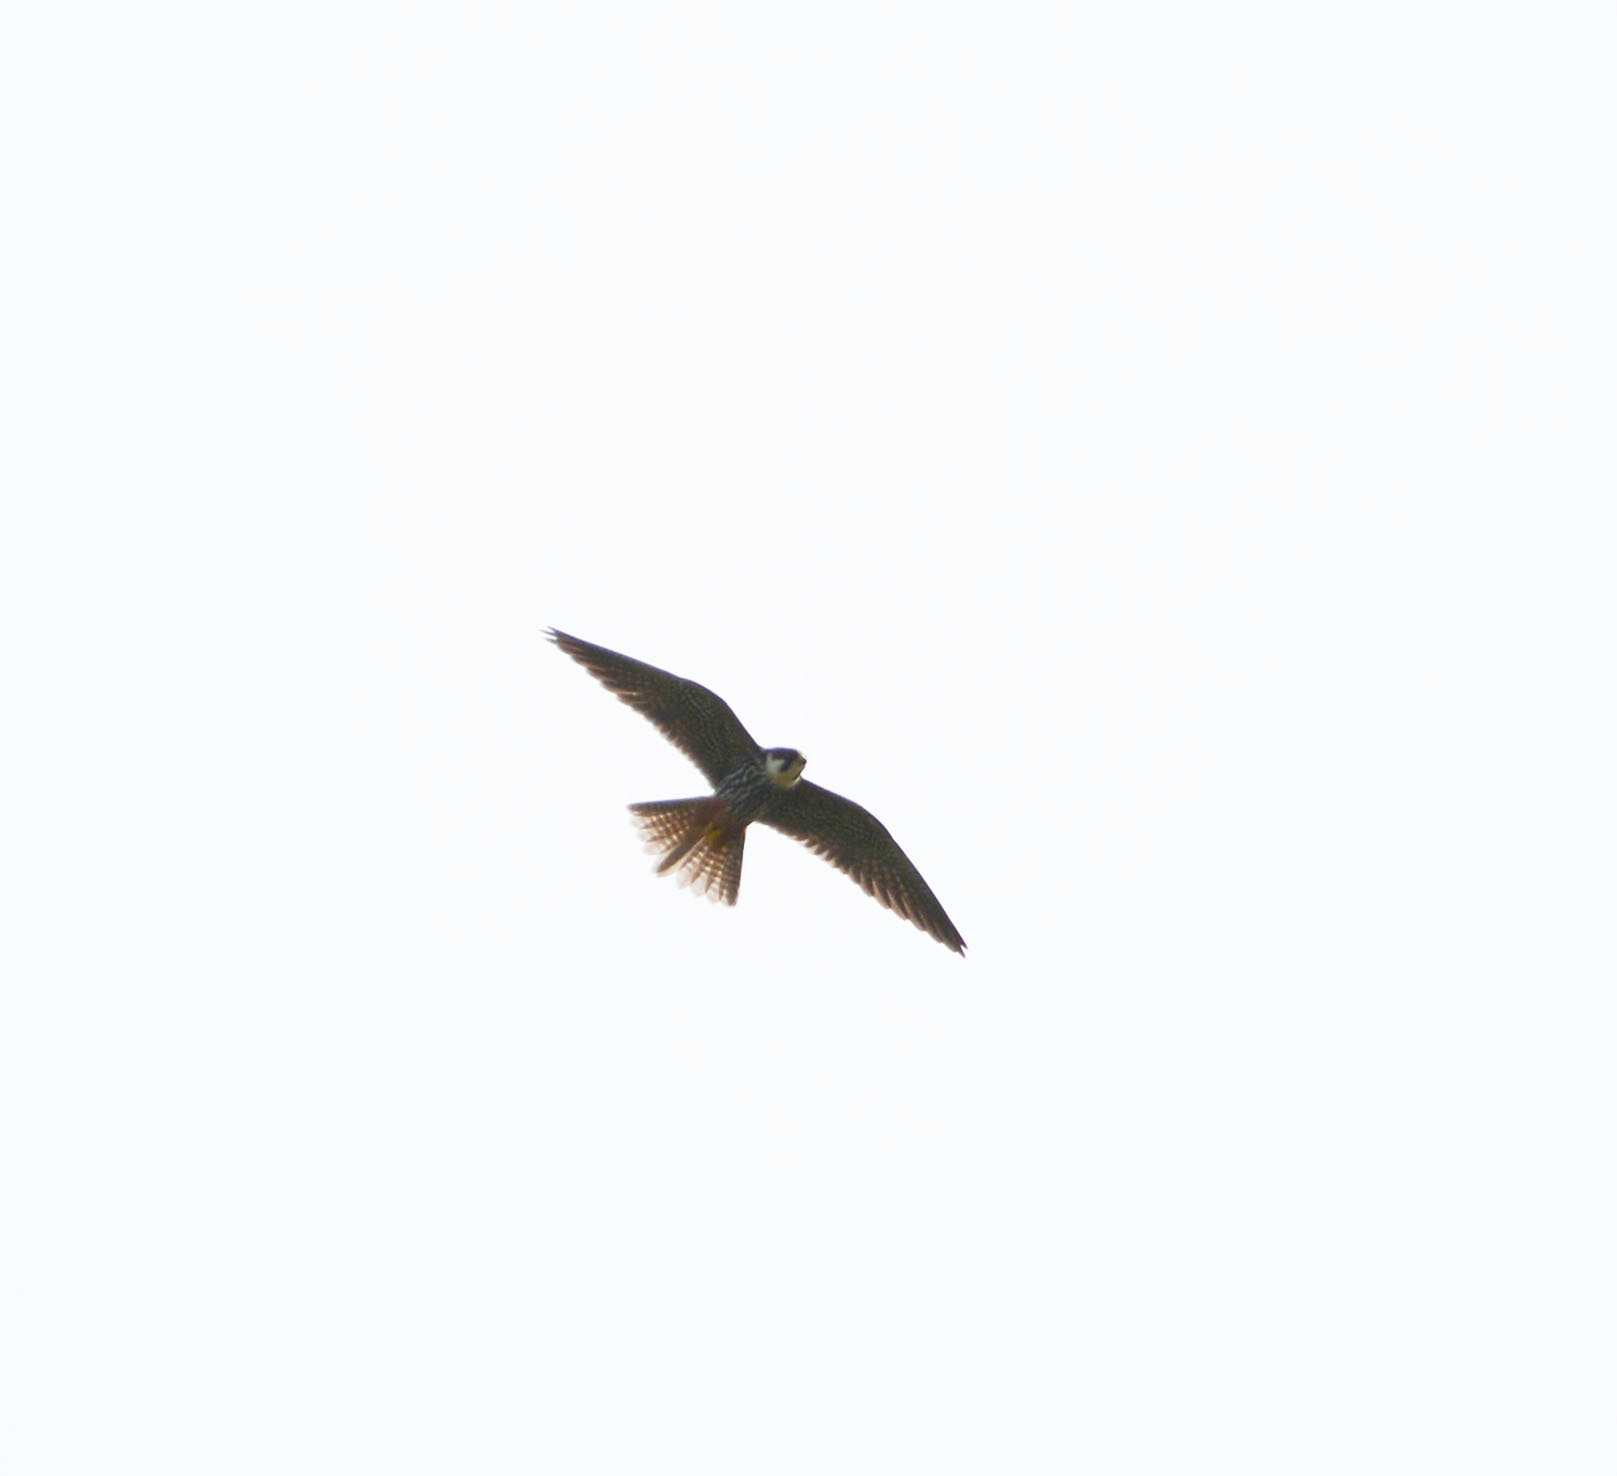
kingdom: Animalia
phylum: Chordata
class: Aves
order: Falconiformes
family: Falconidae
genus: Falco
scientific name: Falco subbuteo
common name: Eurasian hobby
